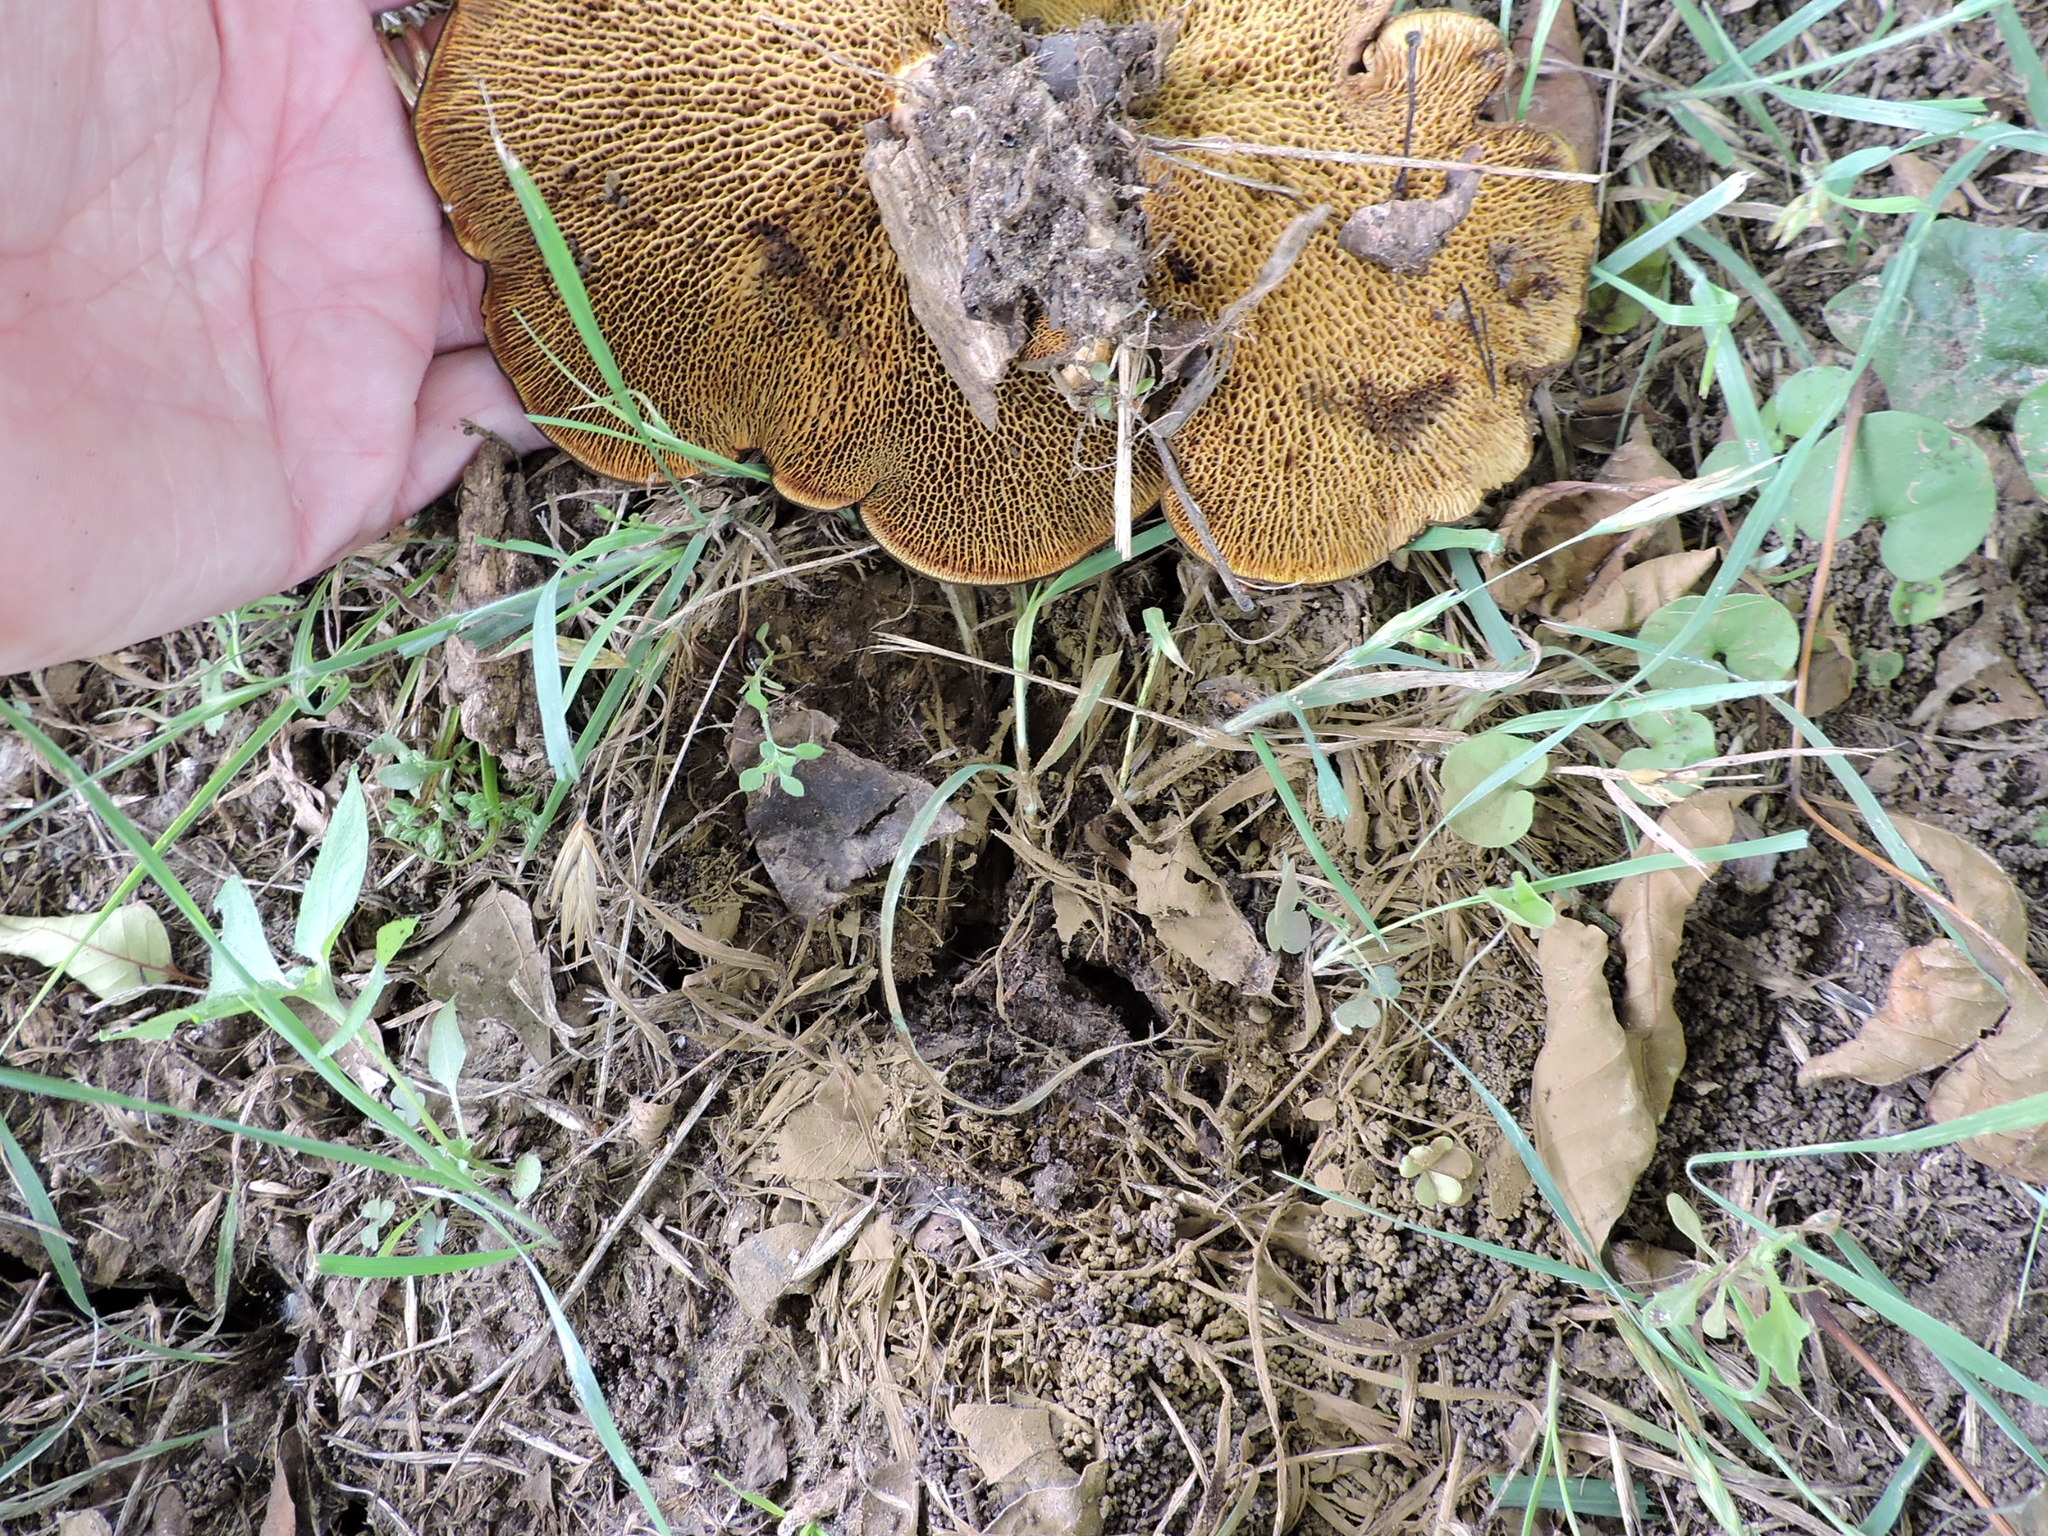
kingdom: Fungi
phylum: Basidiomycota
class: Agaricomycetes
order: Boletales
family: Boletinellaceae
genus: Boletinellus
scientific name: Boletinellus merulioides
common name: Ash tree bolete
